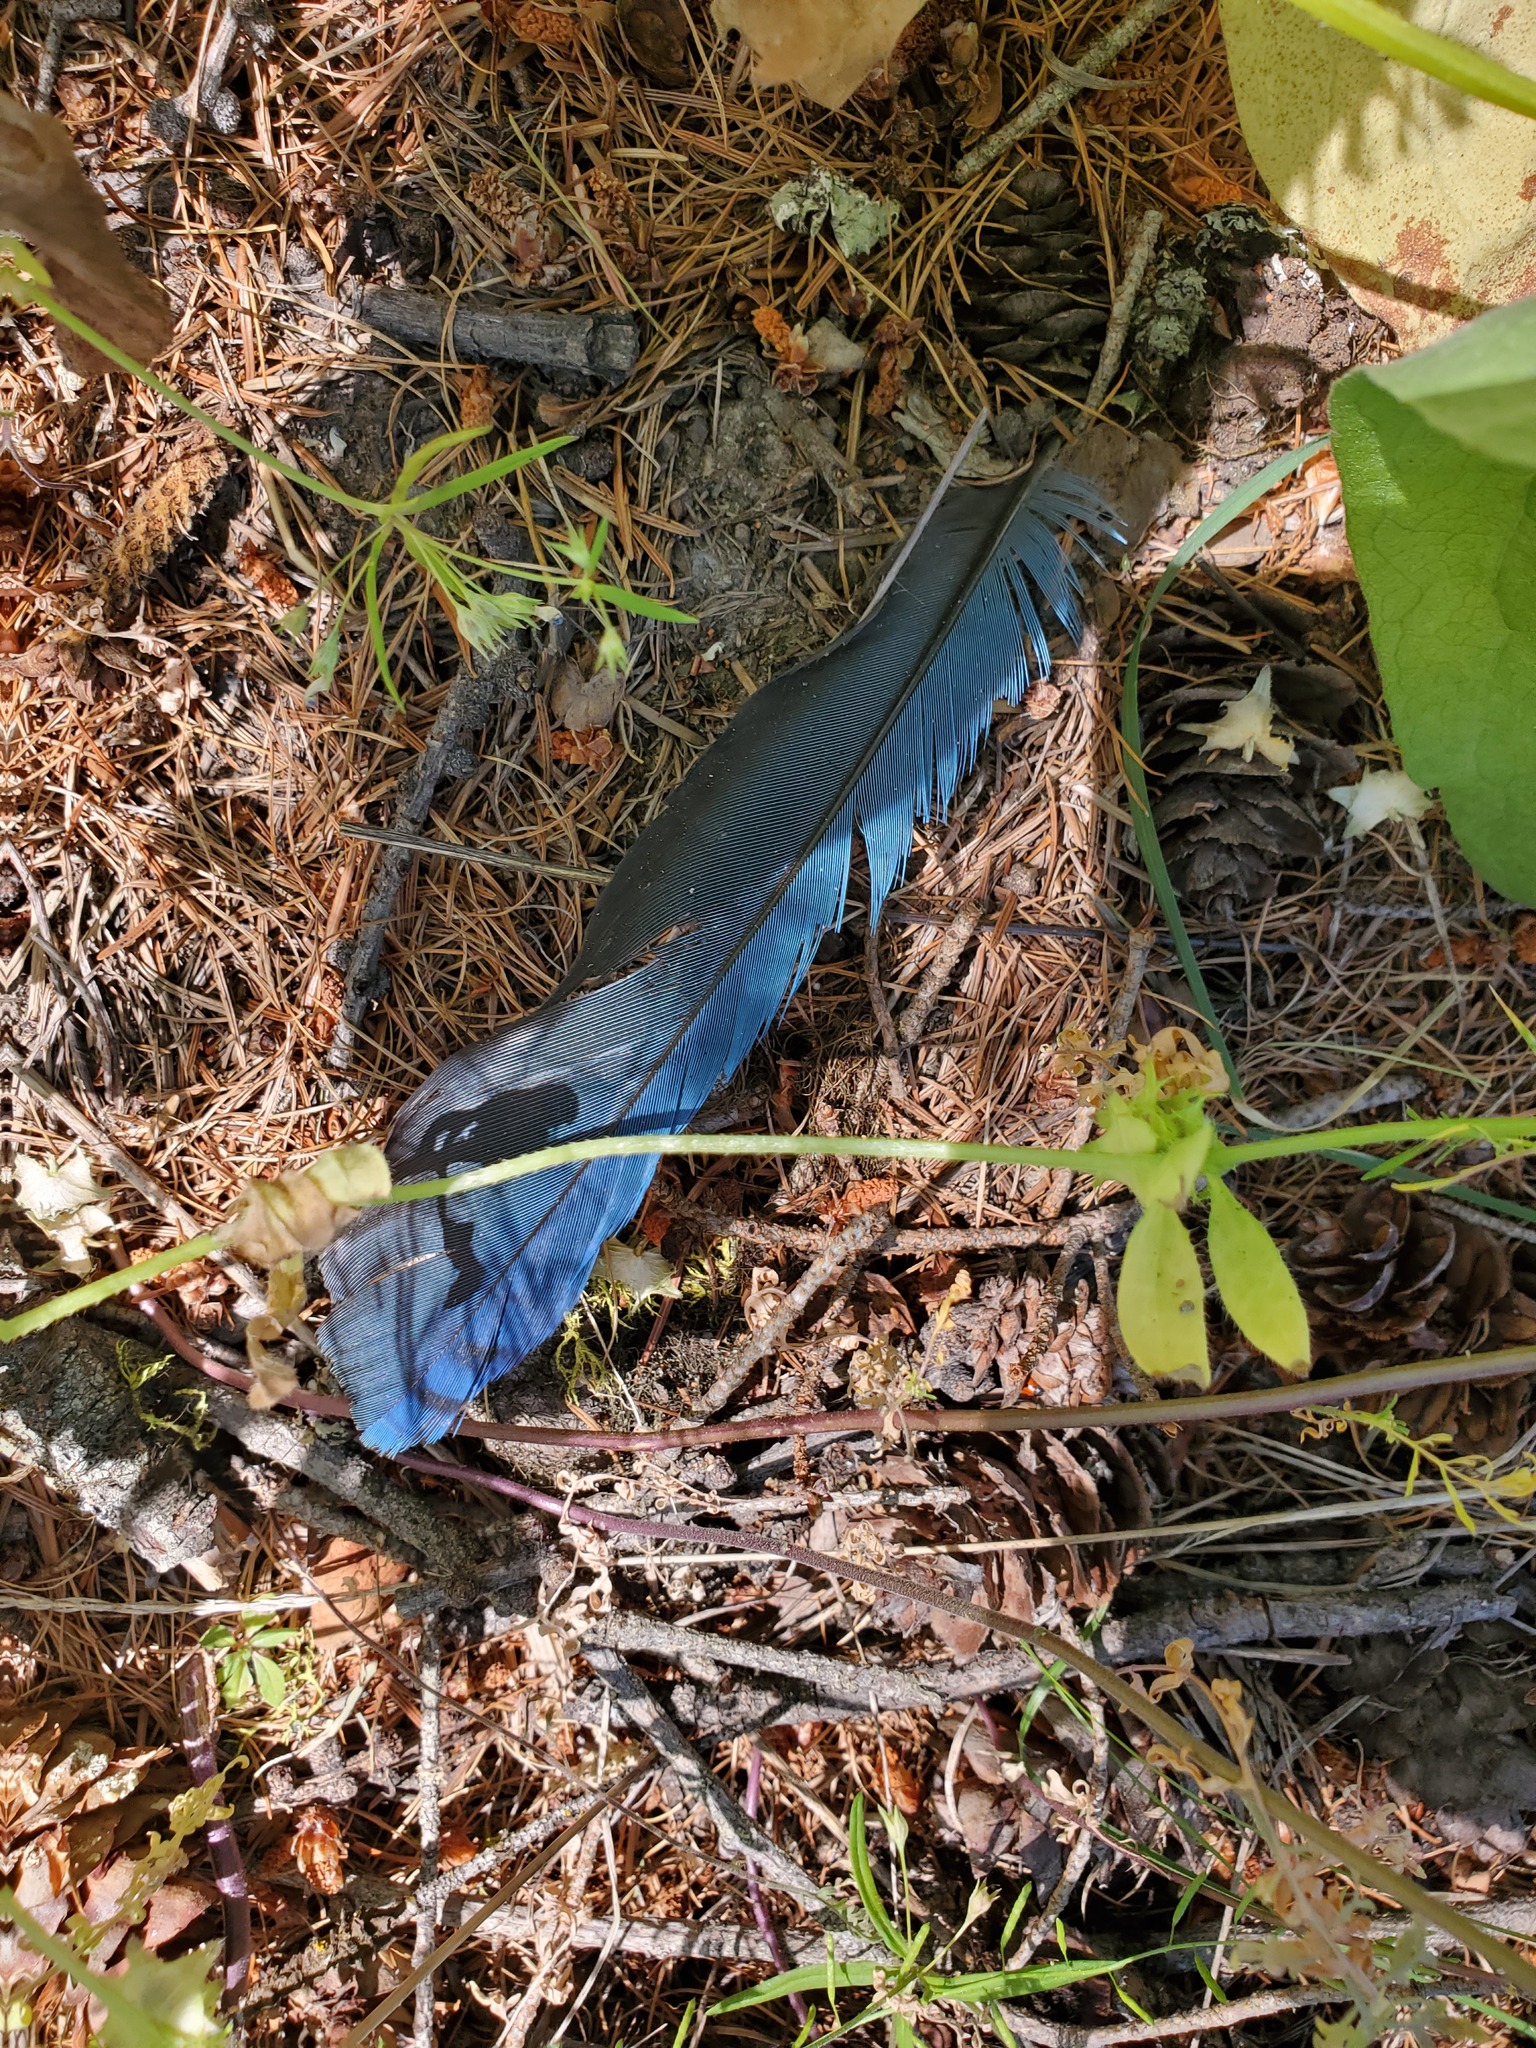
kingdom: Animalia
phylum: Chordata
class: Aves
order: Passeriformes
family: Corvidae
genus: Cyanocitta
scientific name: Cyanocitta stelleri
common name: Steller's jay
